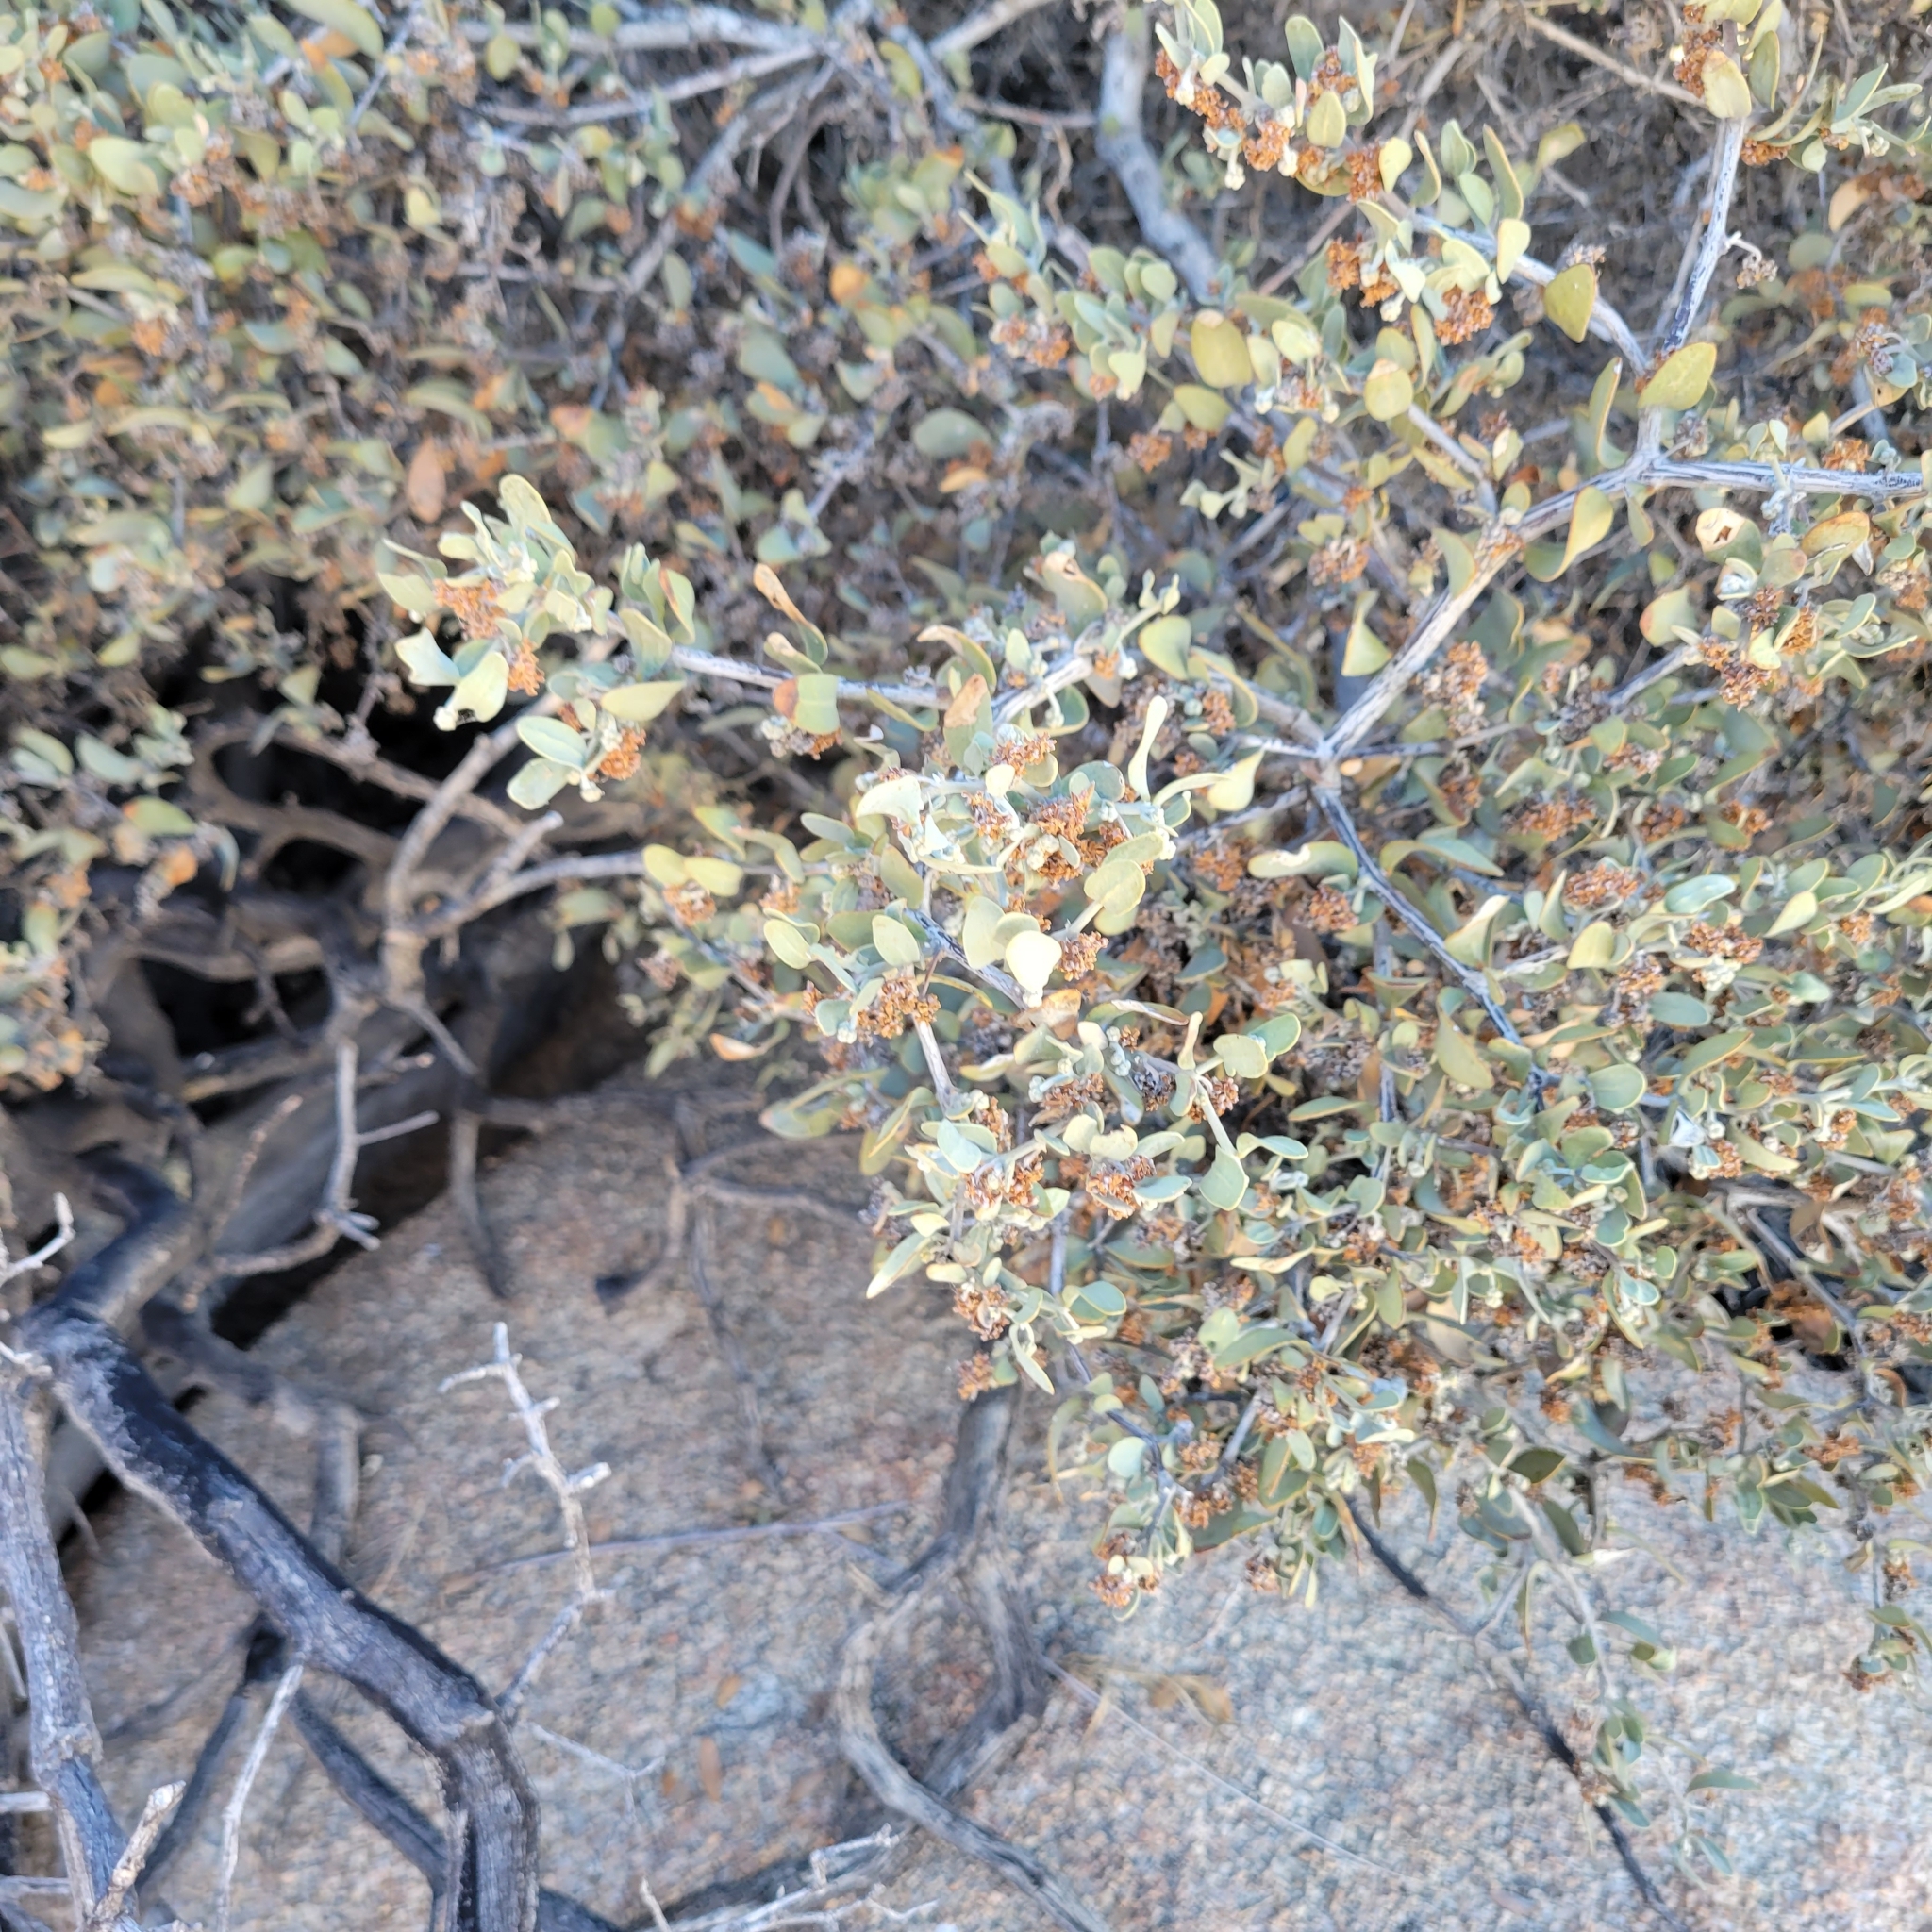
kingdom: Plantae
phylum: Tracheophyta
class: Magnoliopsida
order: Caryophyllales
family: Simmondsiaceae
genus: Simmondsia
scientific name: Simmondsia chinensis
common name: Jojoba
